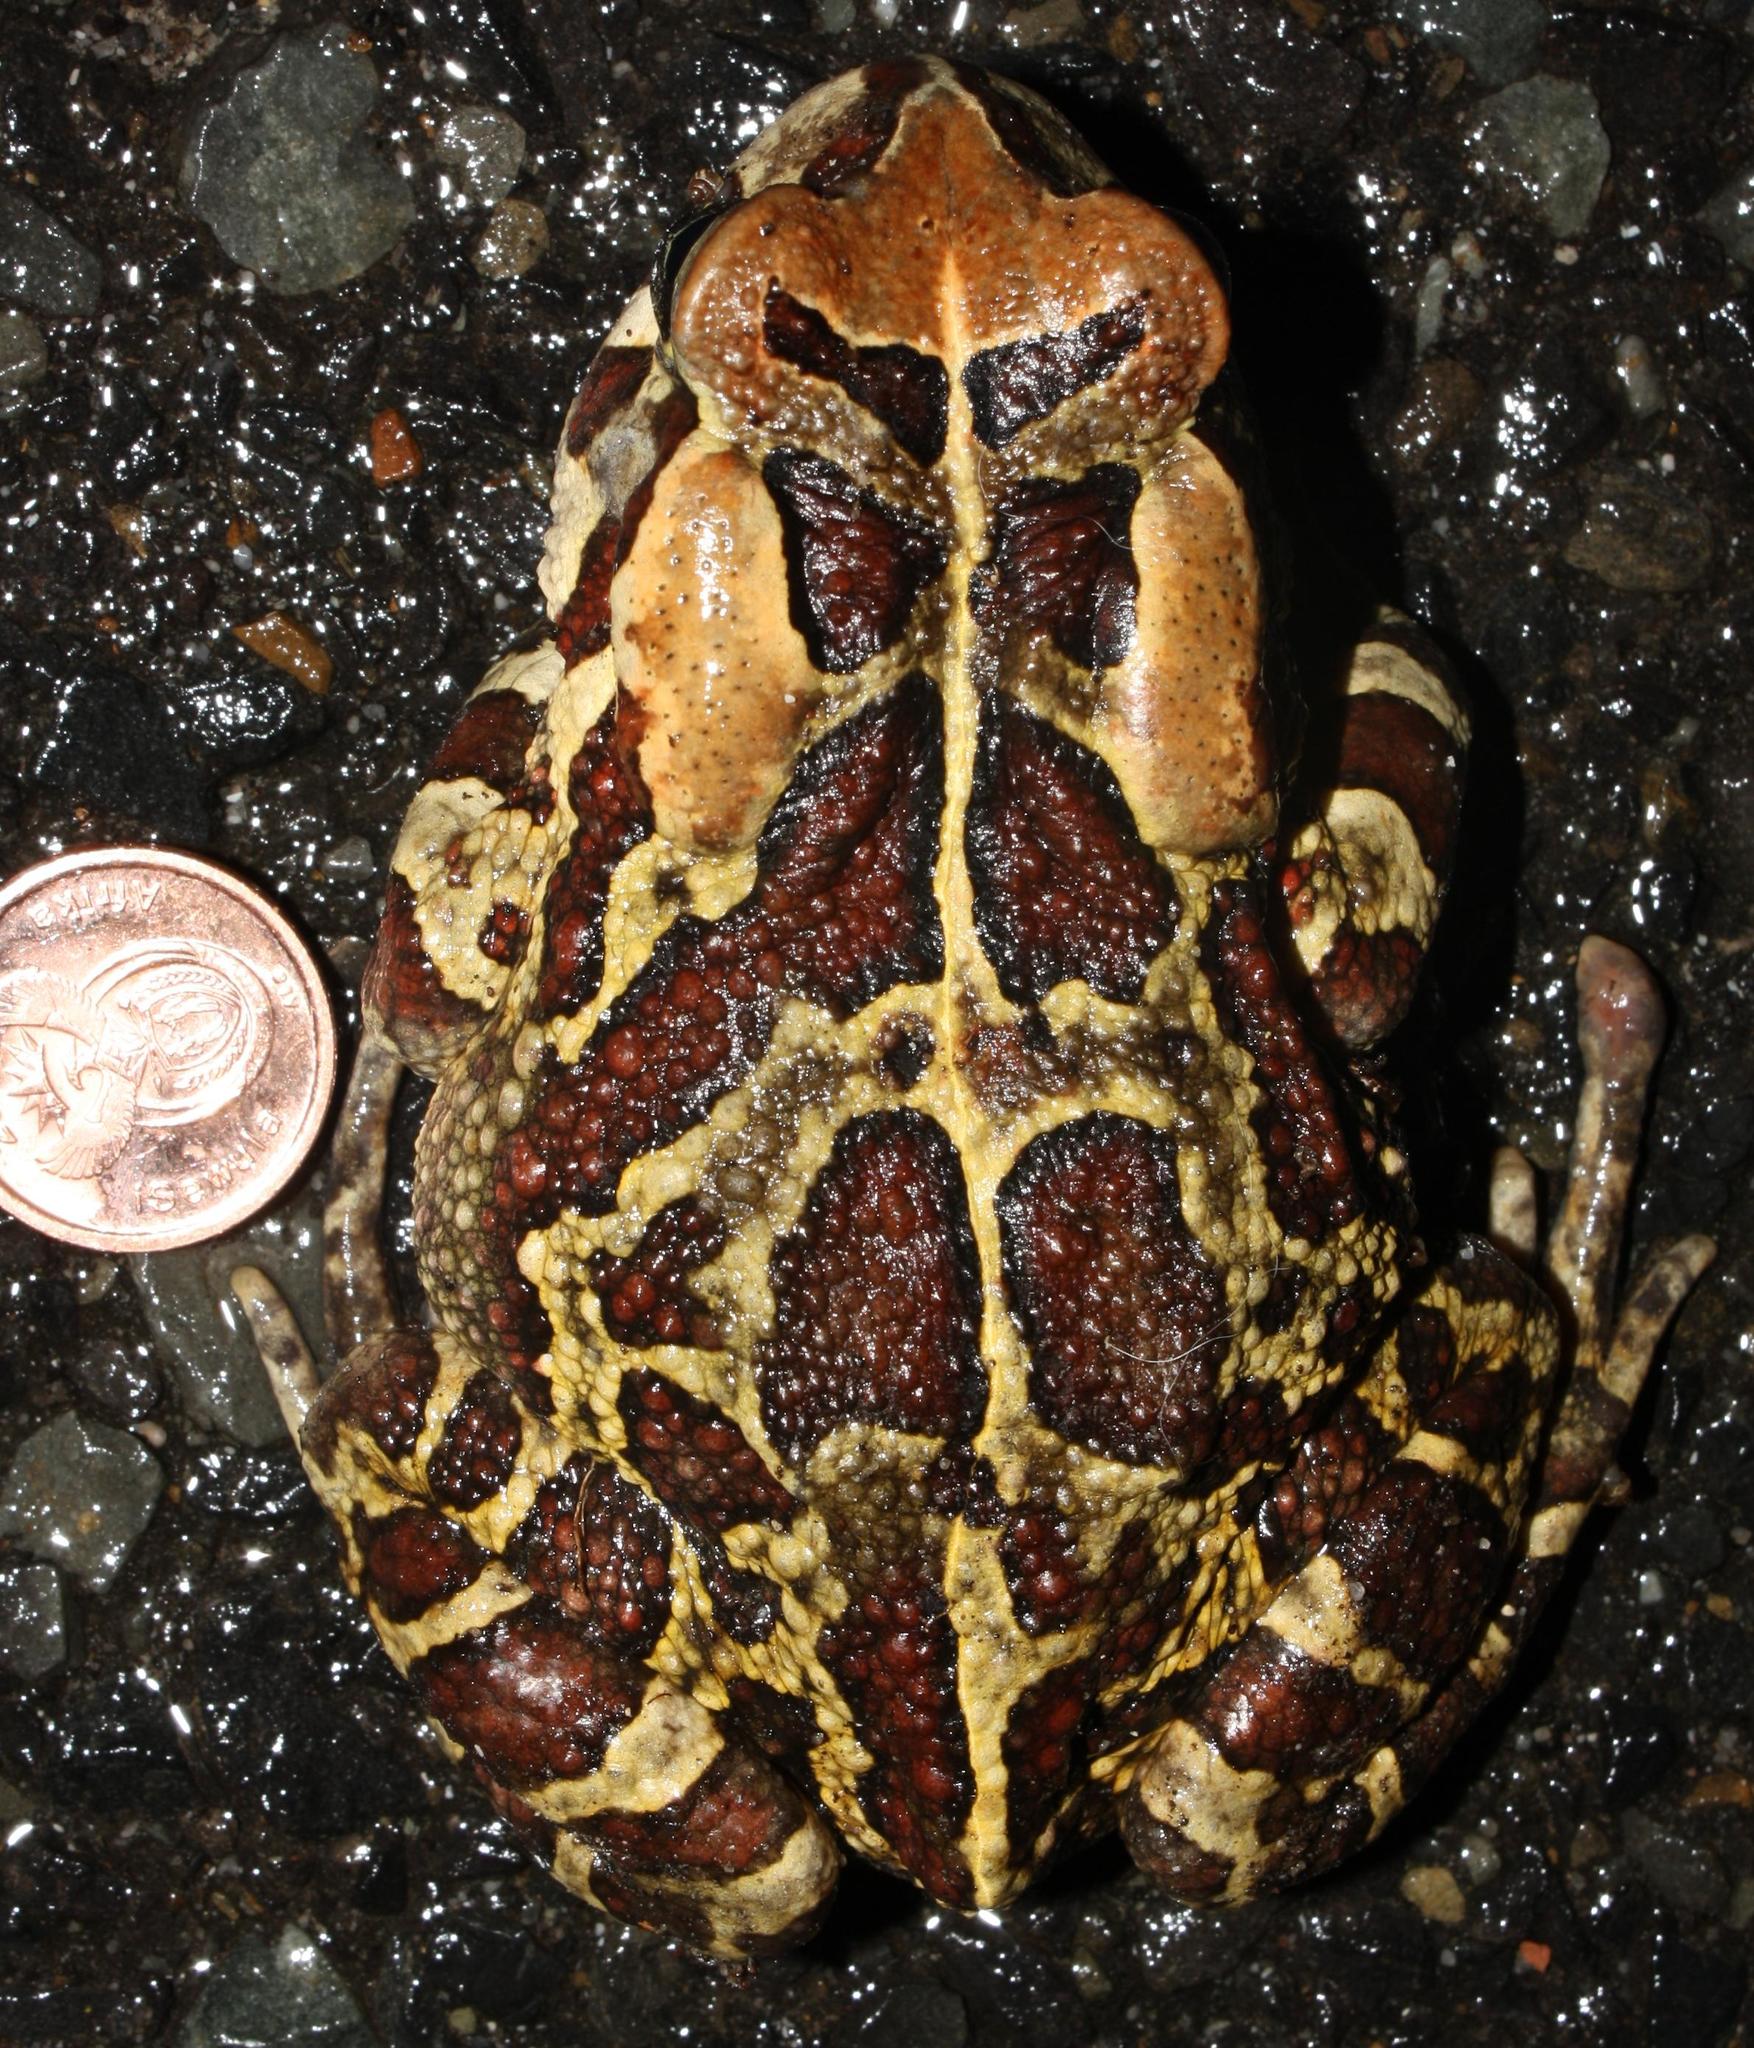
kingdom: Animalia
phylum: Chordata
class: Amphibia
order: Anura
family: Bufonidae
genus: Sclerophrys
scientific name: Sclerophrys pantherina
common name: Panther toad
